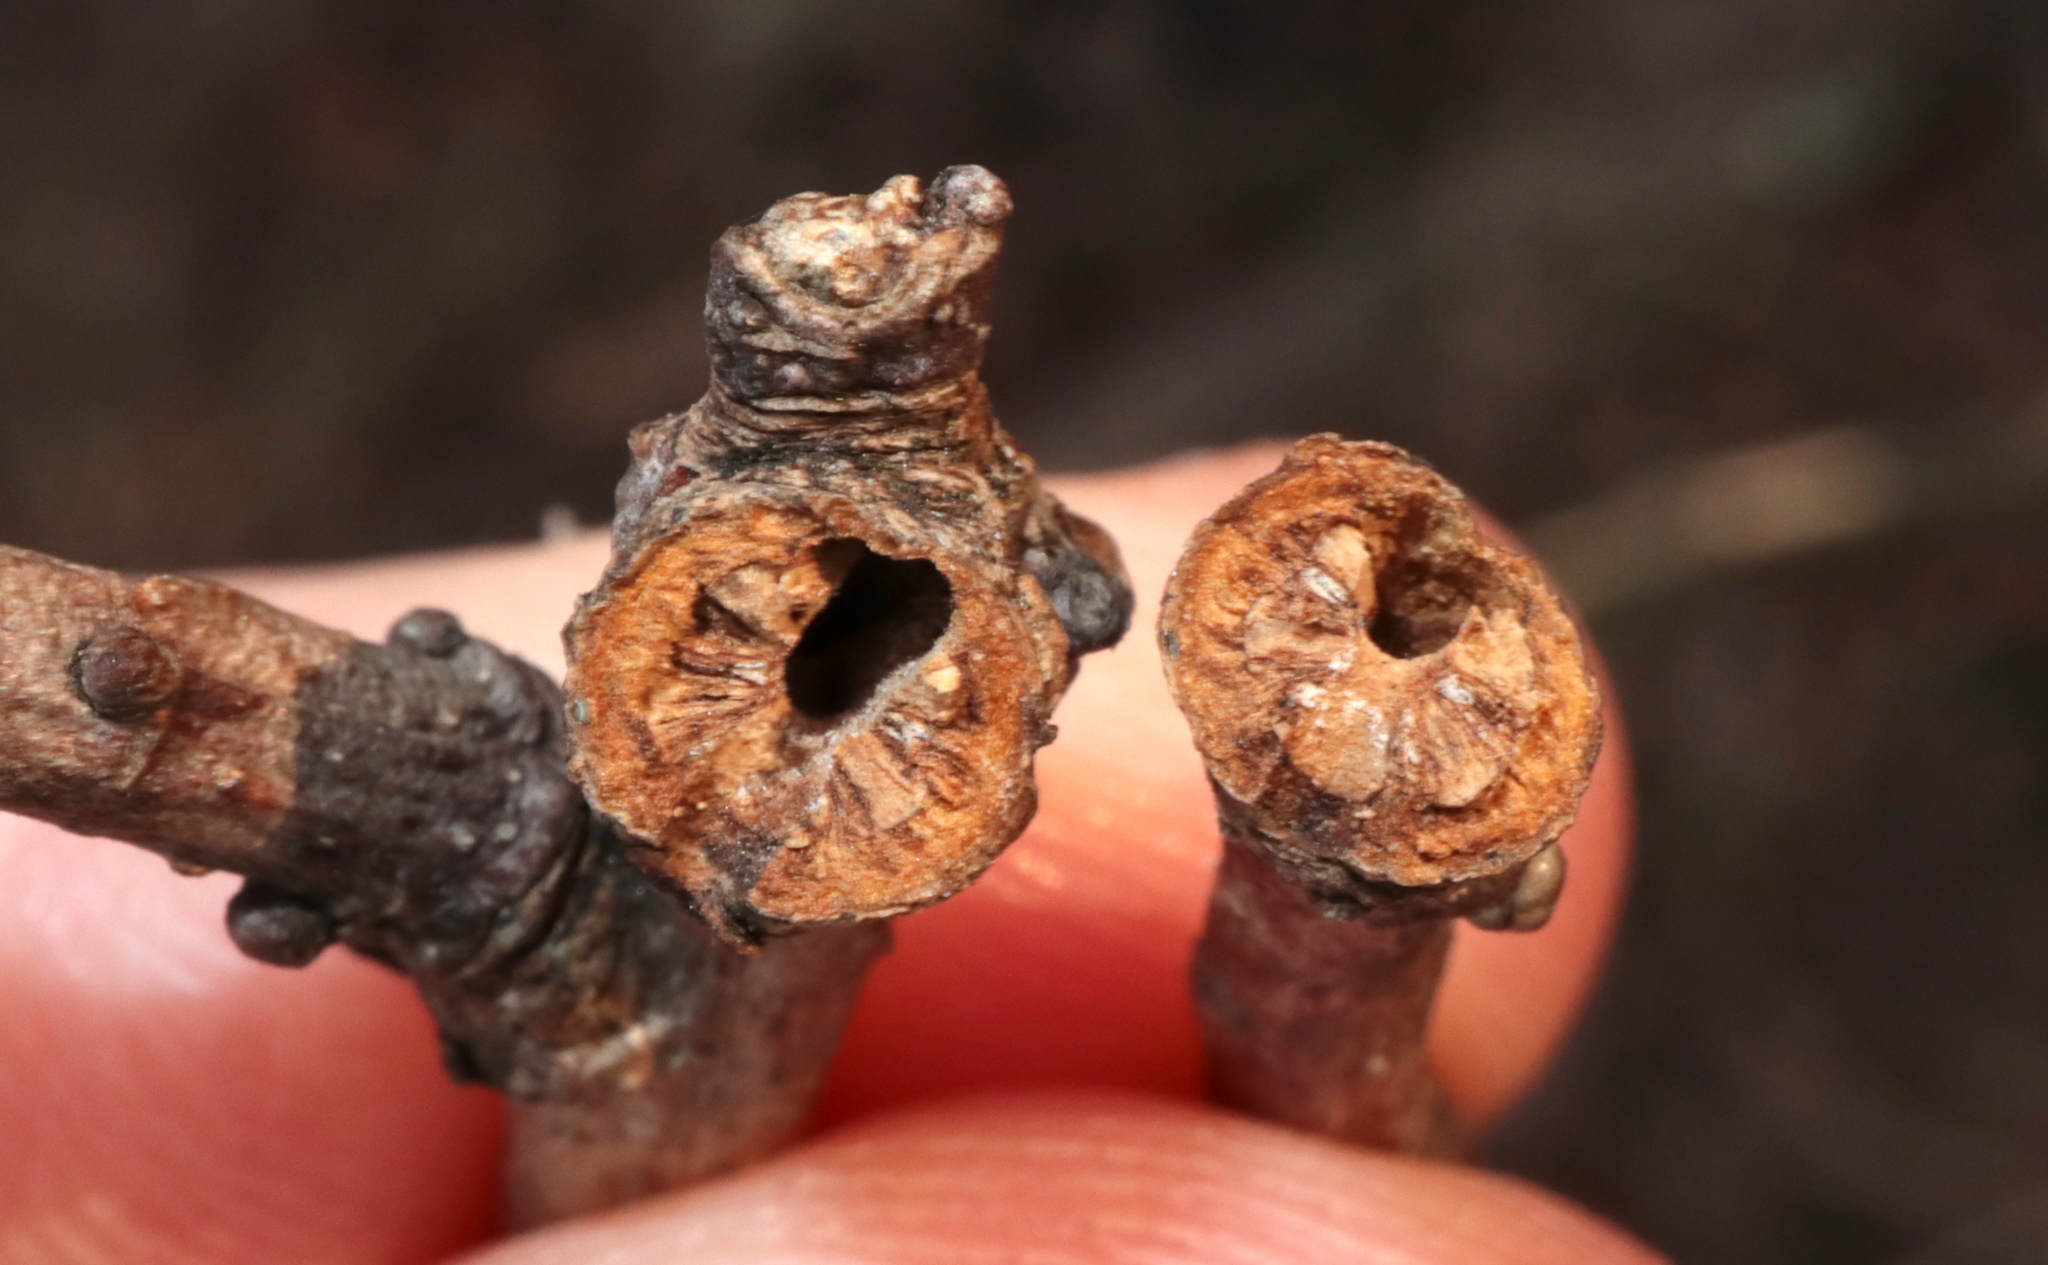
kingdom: Animalia
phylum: Arthropoda
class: Insecta
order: Hymenoptera
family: Cynipidae
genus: Neuroterus
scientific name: Neuroterus
